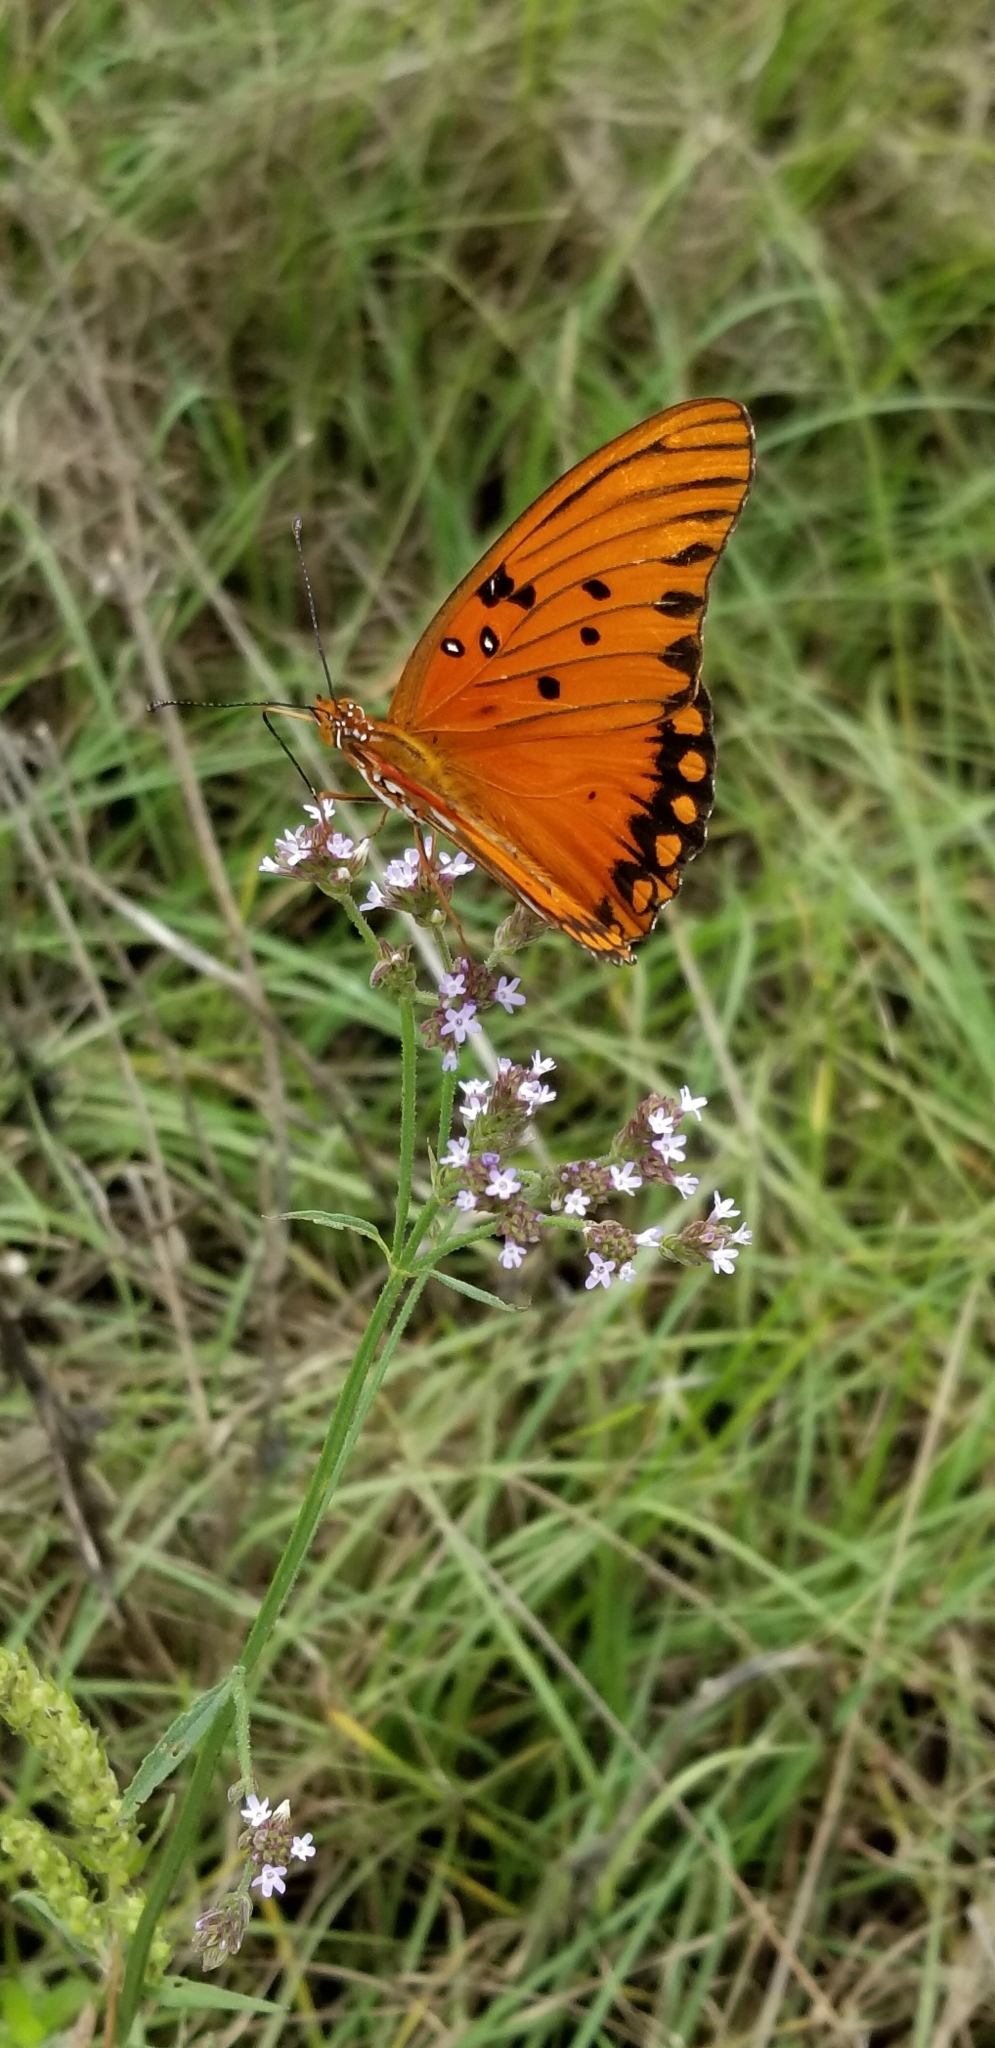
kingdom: Animalia
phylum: Arthropoda
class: Insecta
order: Lepidoptera
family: Nymphalidae
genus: Dione
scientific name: Dione vanillae
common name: Gulf fritillary
